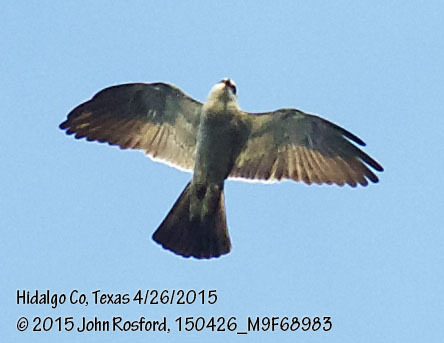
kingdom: Animalia
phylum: Chordata
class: Aves
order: Accipitriformes
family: Accipitridae
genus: Ictinia
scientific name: Ictinia mississippiensis
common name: Mississippi kite
